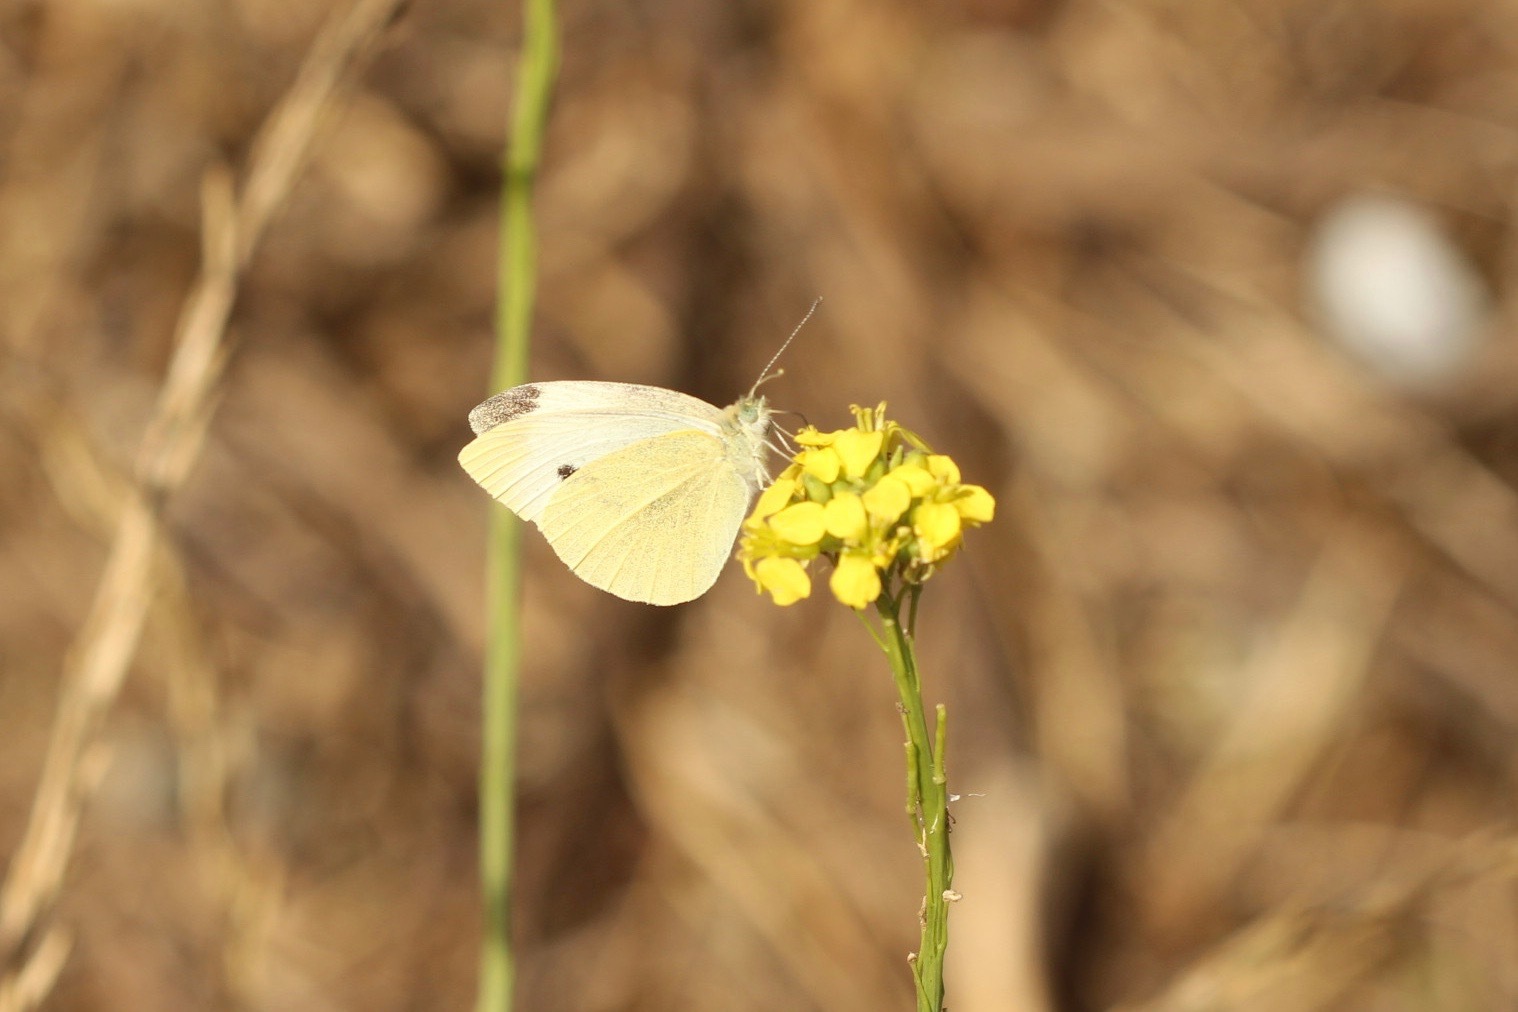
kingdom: Animalia
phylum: Arthropoda
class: Insecta
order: Lepidoptera
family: Pieridae
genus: Pieris
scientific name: Pieris rapae
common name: Small white
